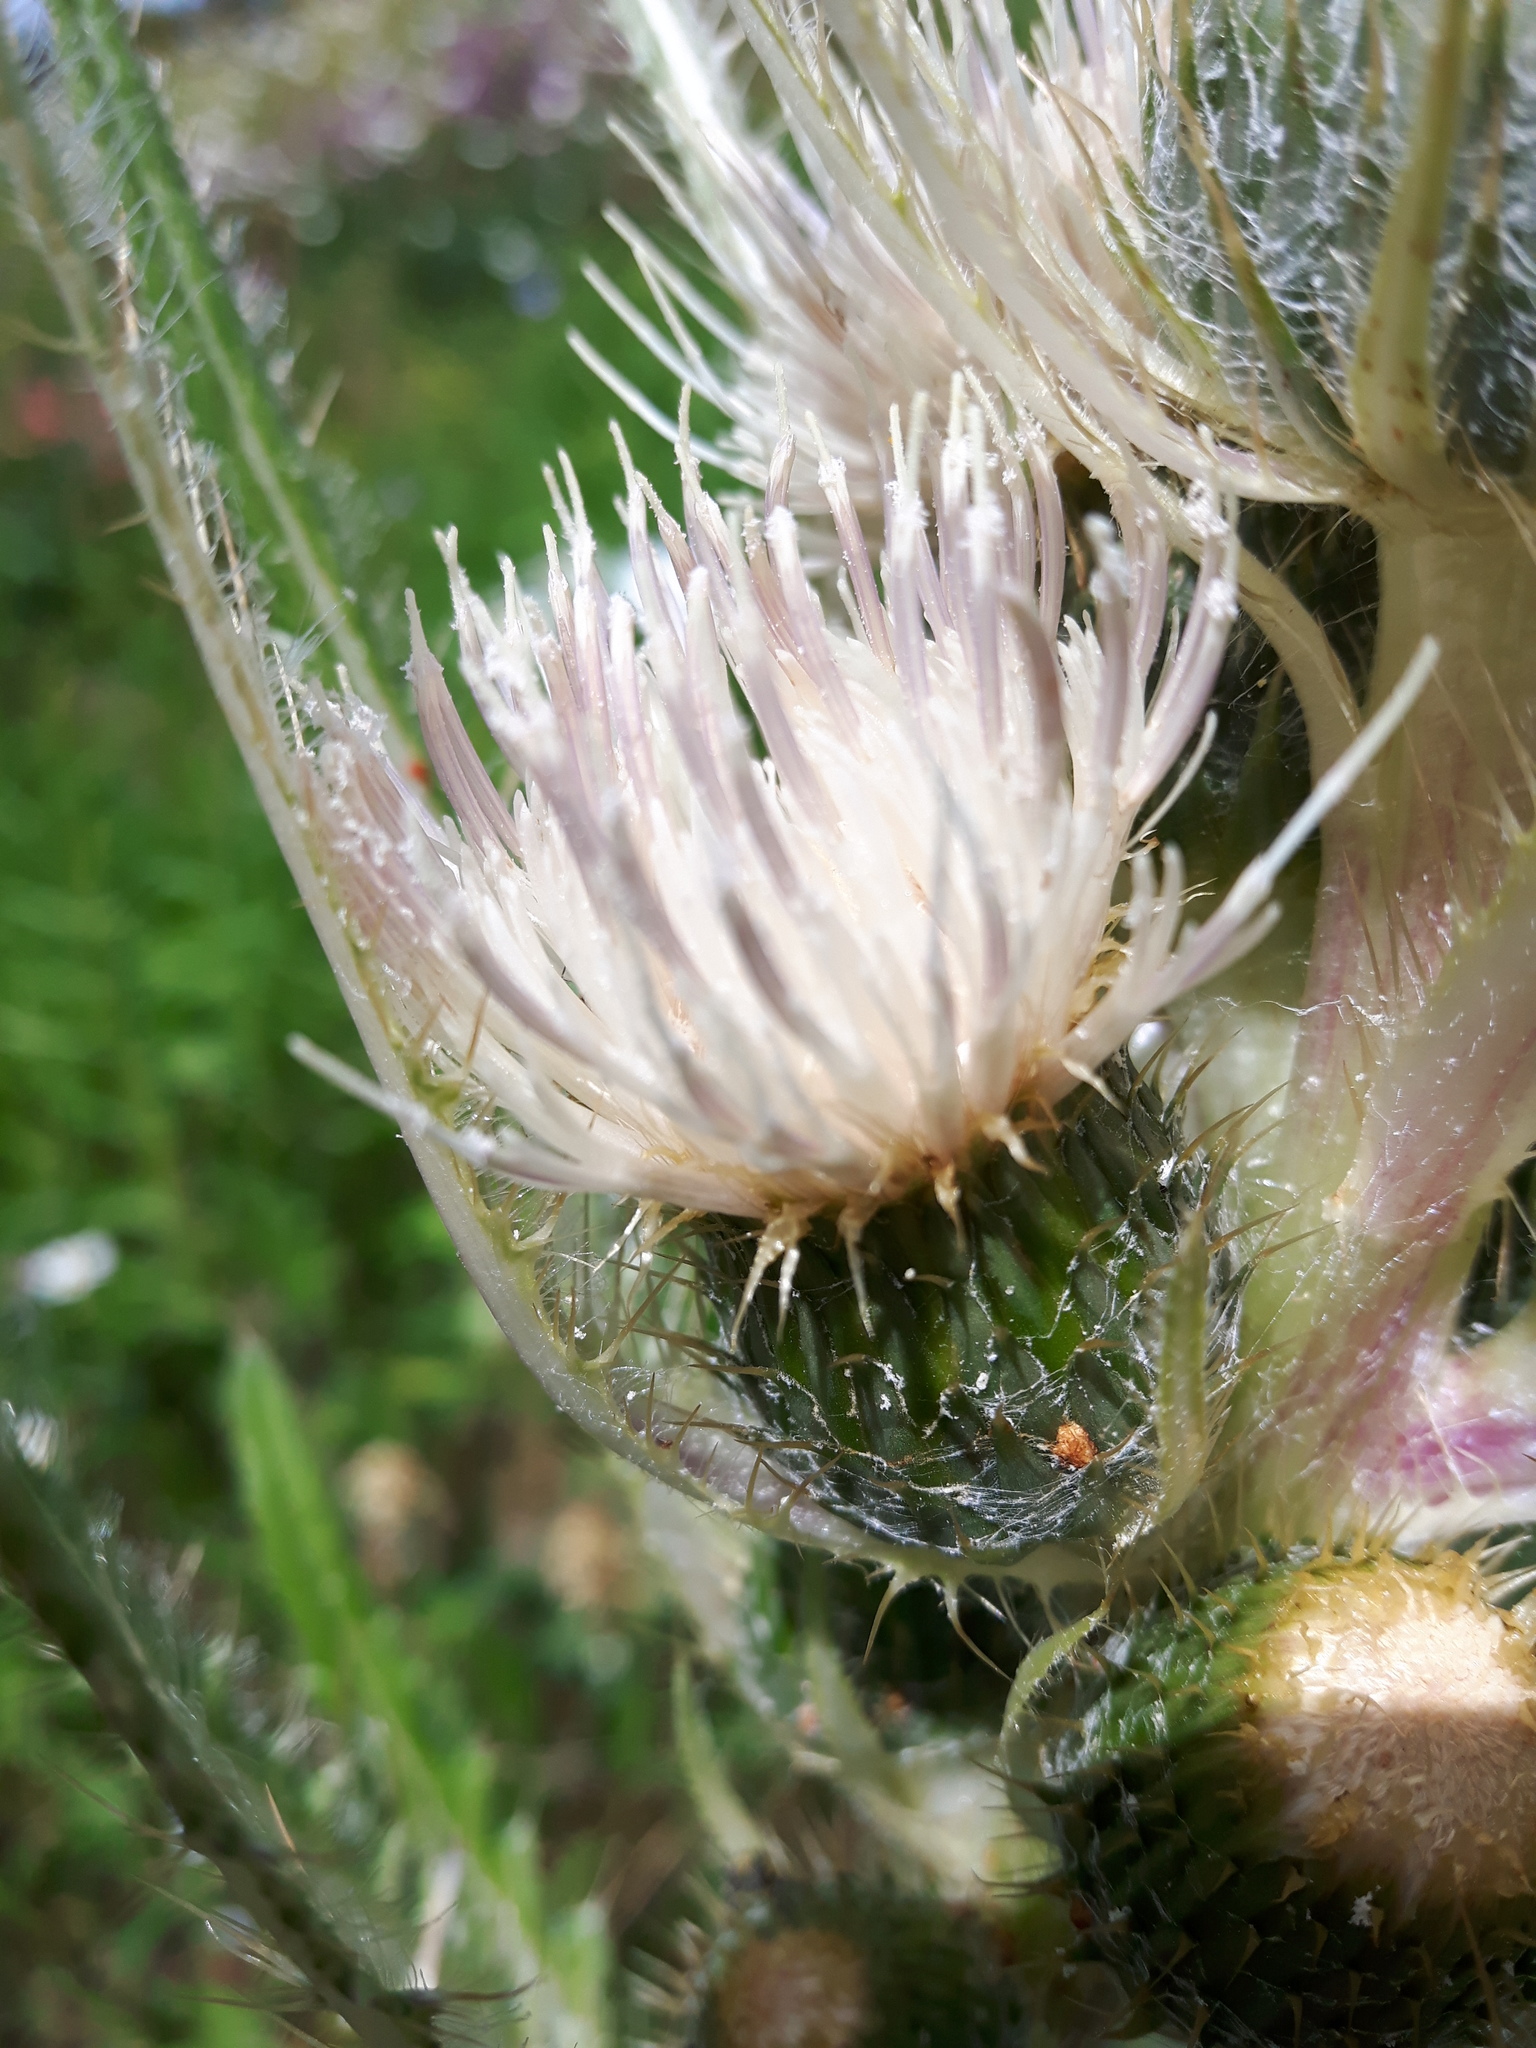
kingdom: Plantae
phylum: Tracheophyta
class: Magnoliopsida
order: Asterales
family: Asteraceae
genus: Cirsium
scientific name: Cirsium scariosum
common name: Meadow thistle
